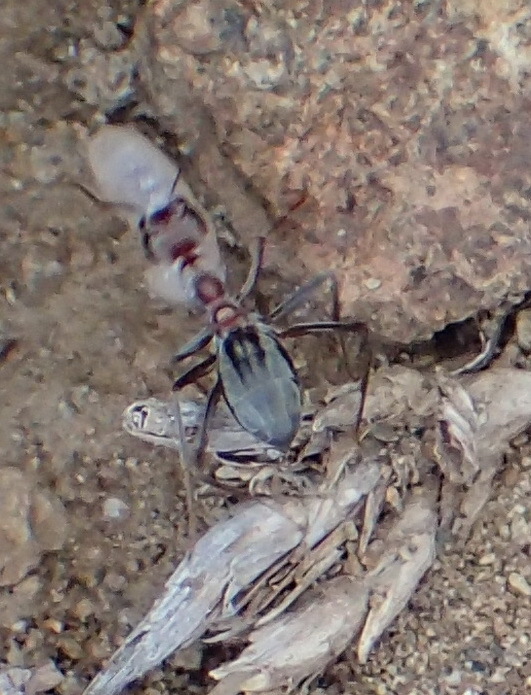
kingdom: Animalia
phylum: Arthropoda
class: Insecta
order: Hymenoptera
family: Formicidae
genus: Anoplolepis
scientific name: Anoplolepis custodiens
